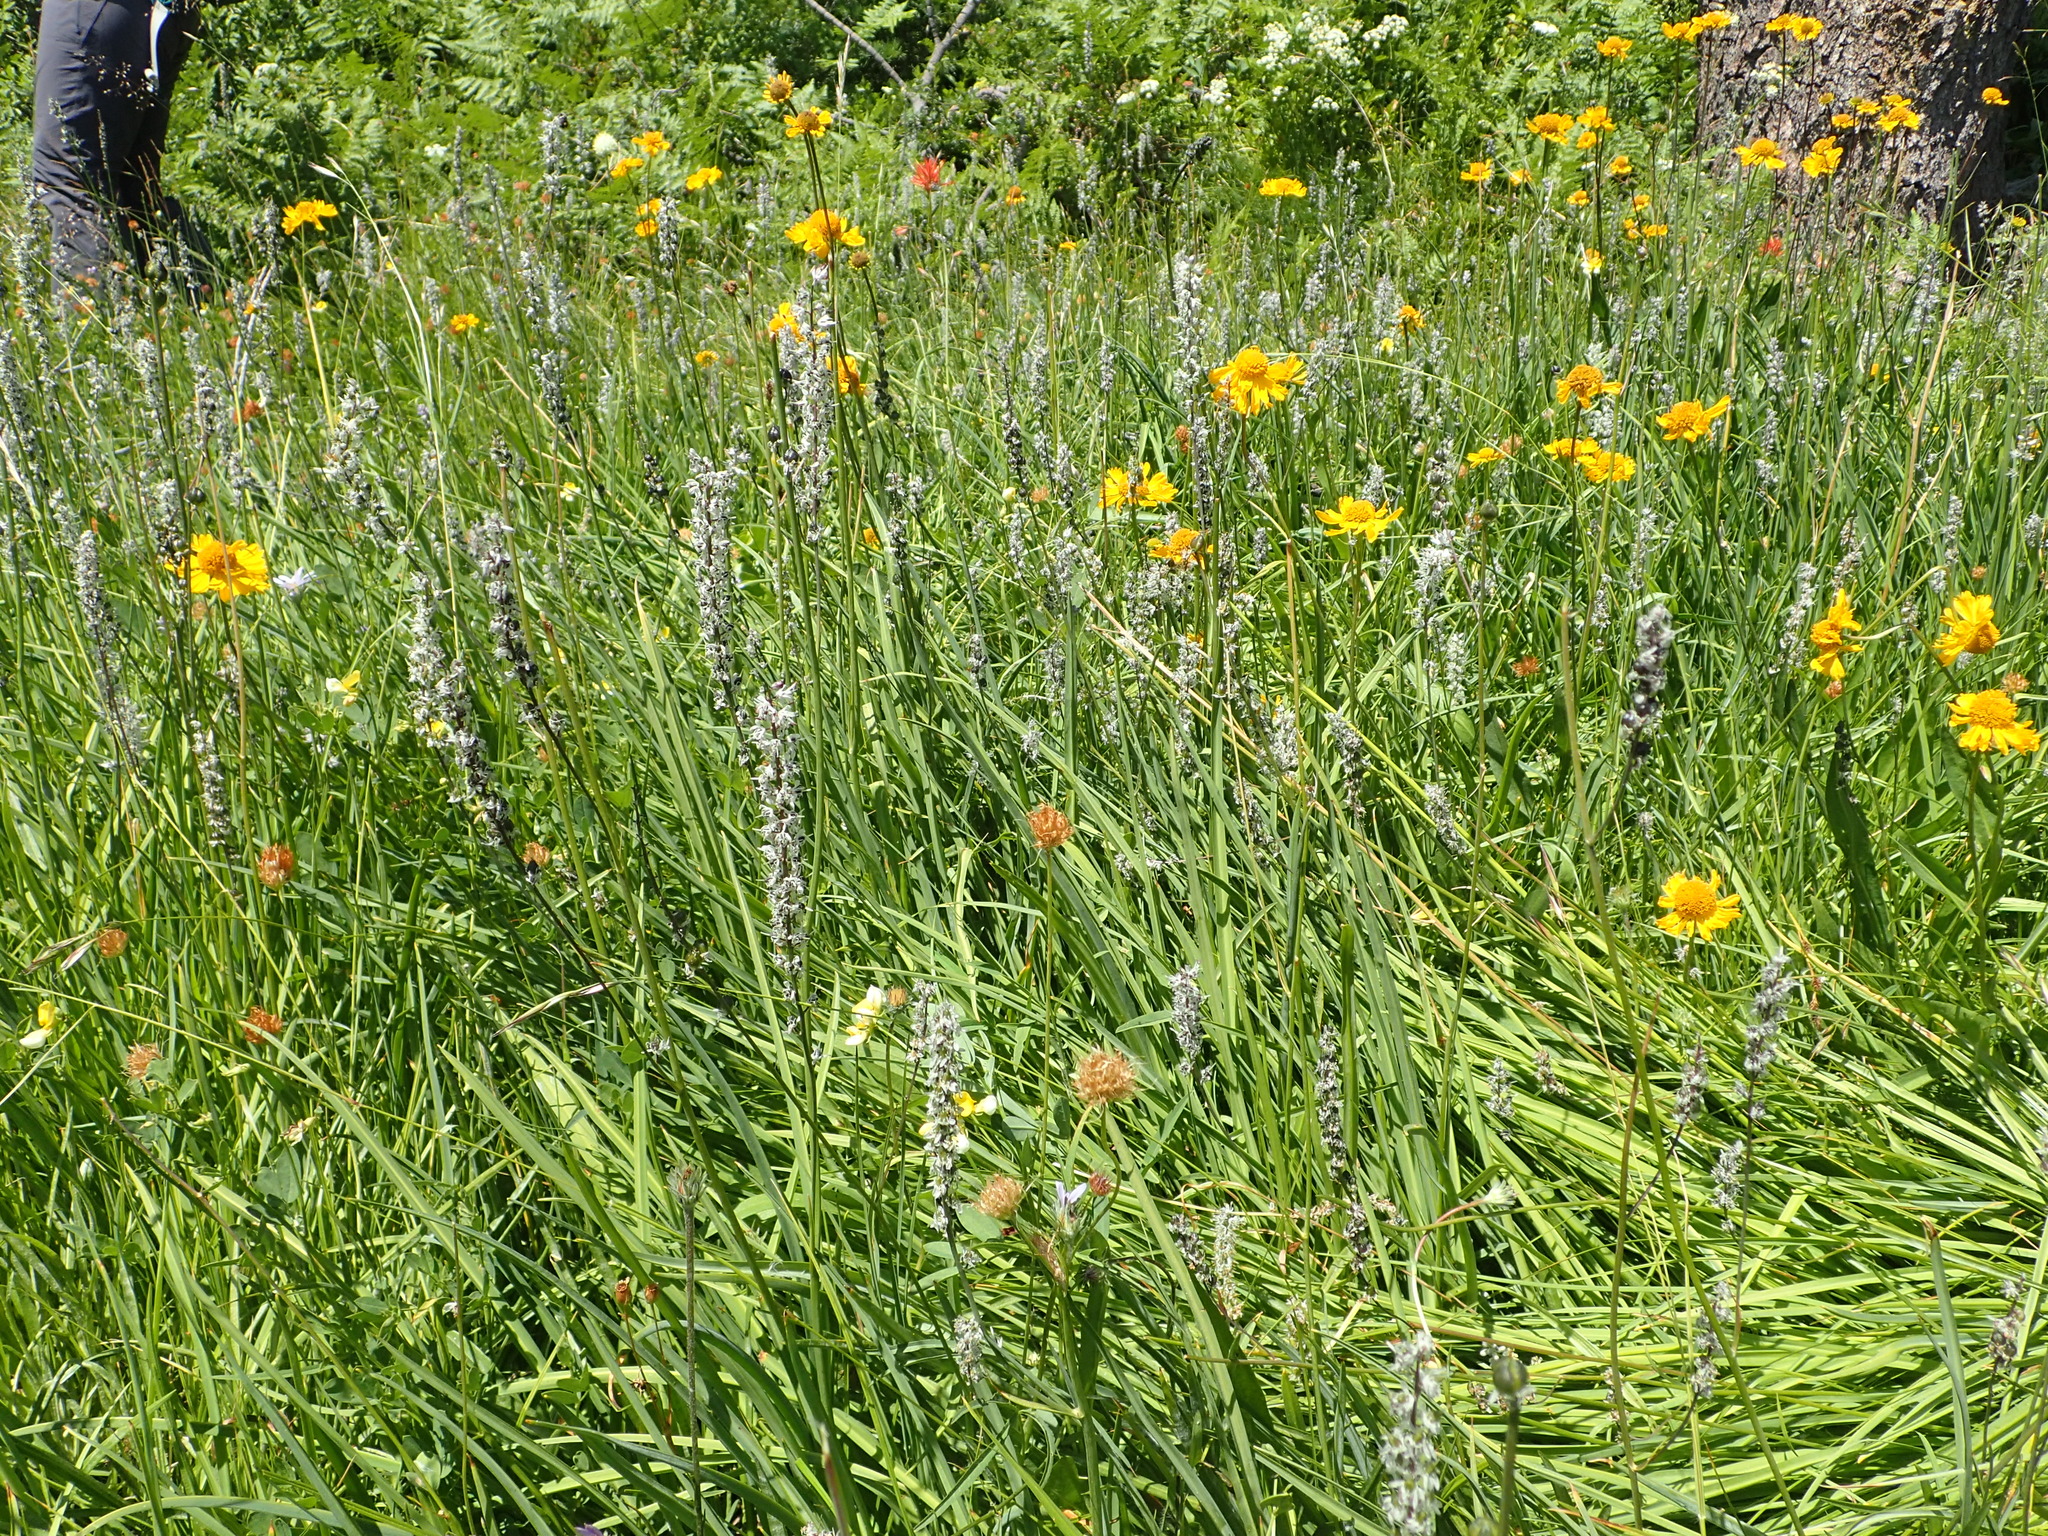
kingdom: Plantae
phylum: Tracheophyta
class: Magnoliopsida
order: Fabales
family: Fabaceae
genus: Hosackia
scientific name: Hosackia oblongifolia
